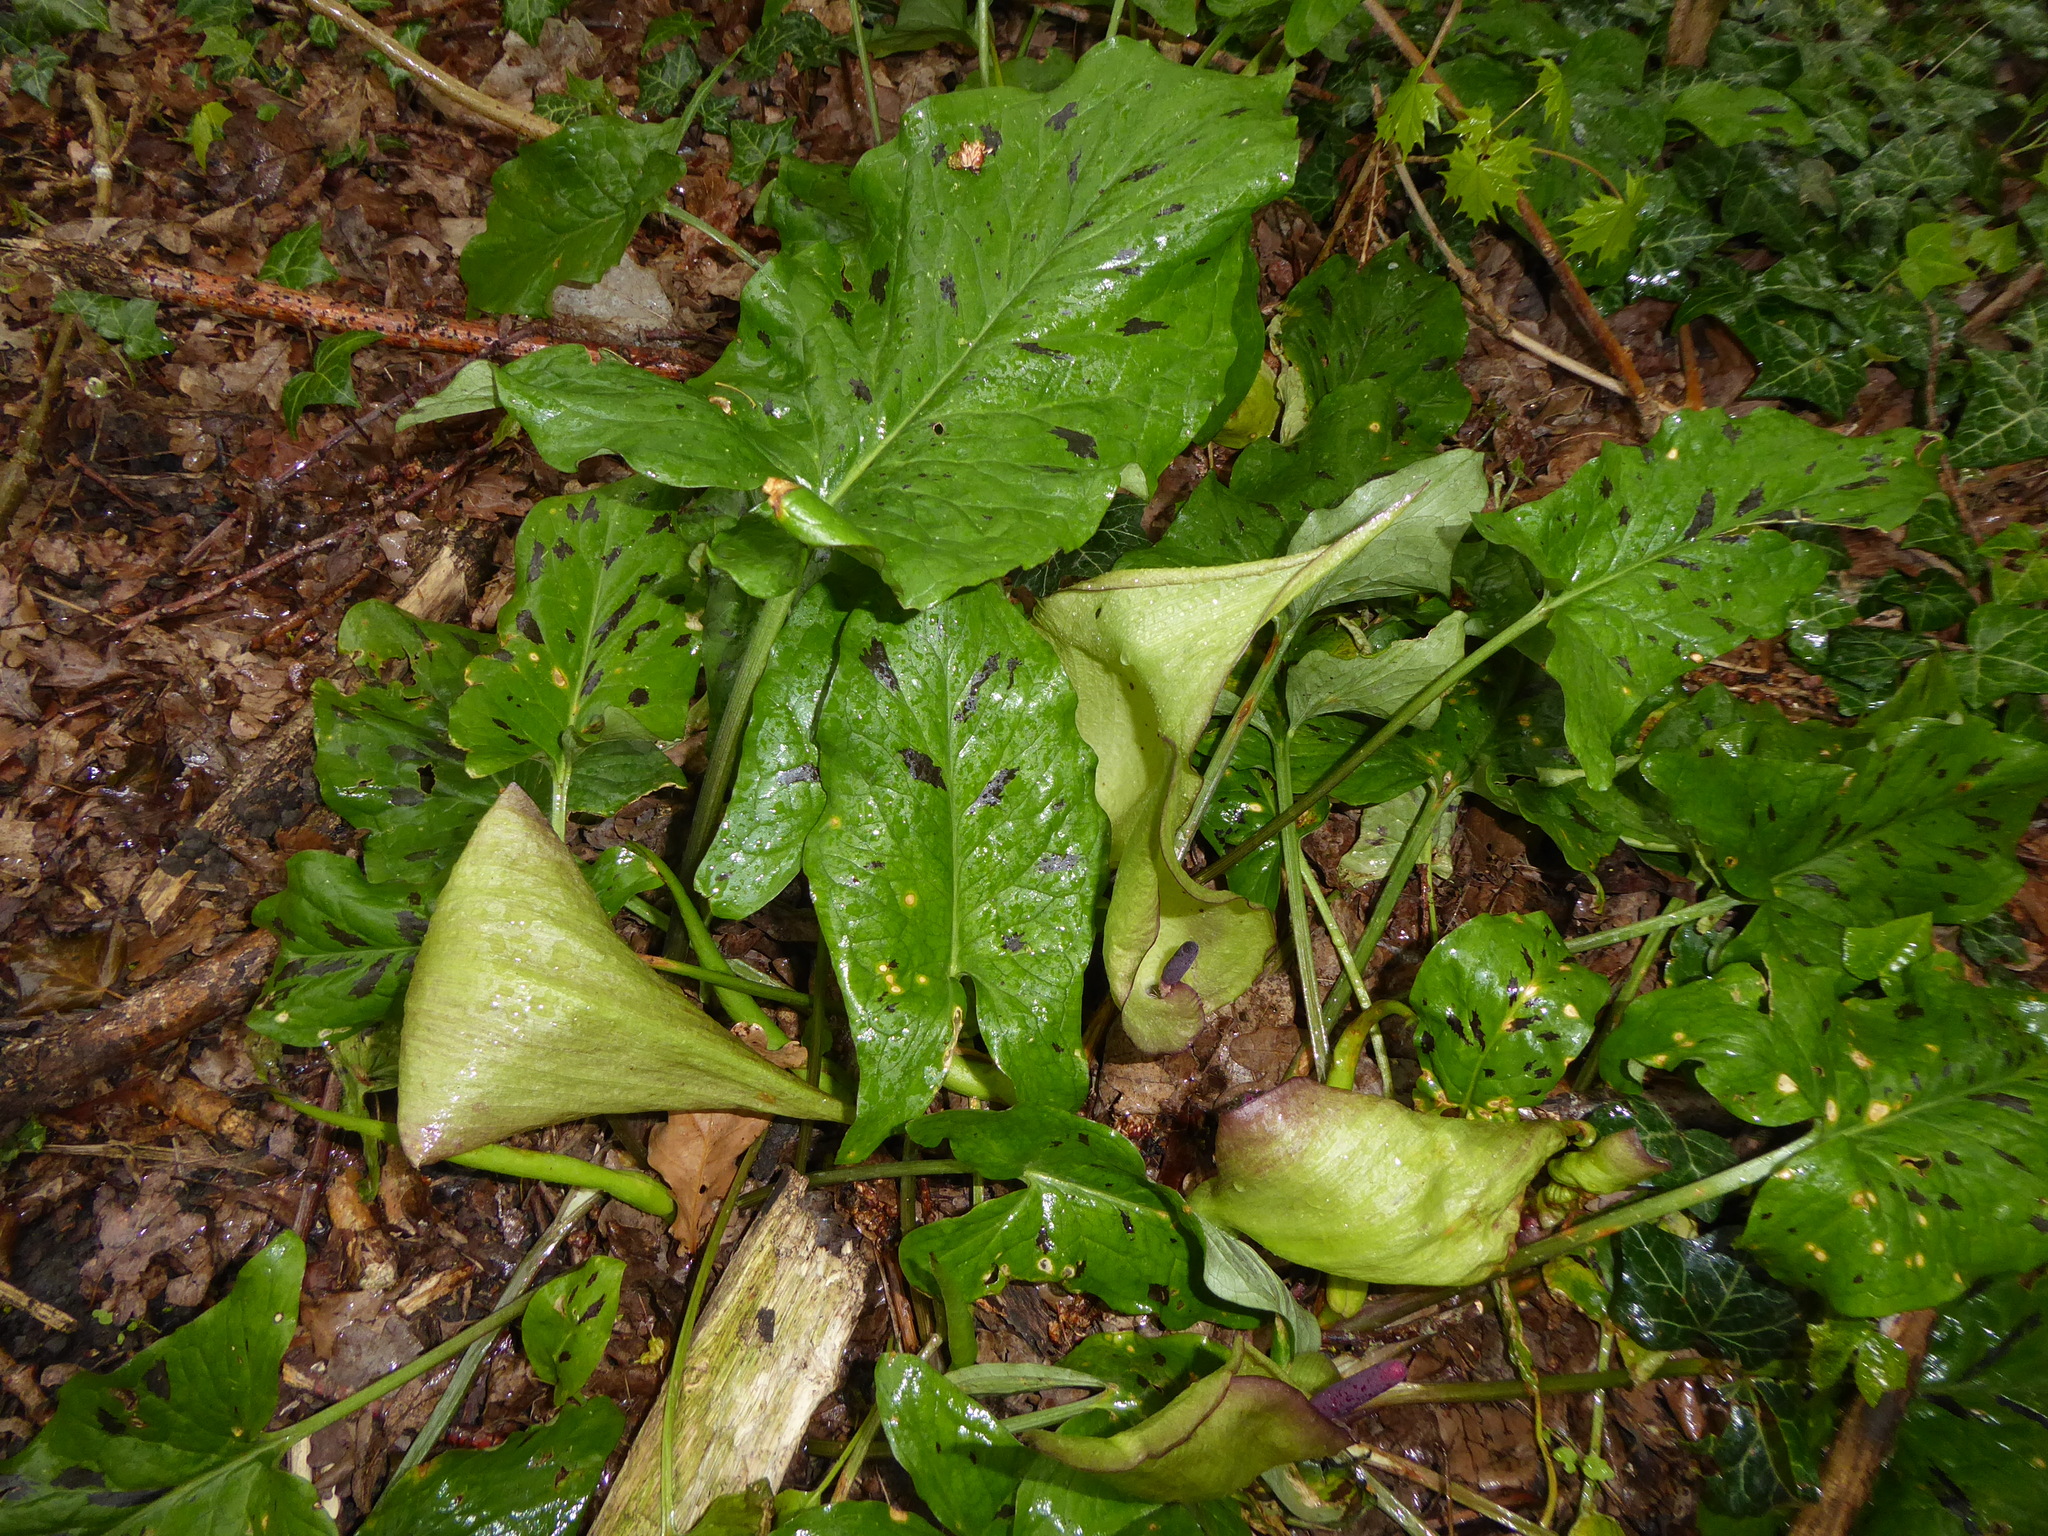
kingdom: Plantae
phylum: Tracheophyta
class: Liliopsida
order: Alismatales
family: Araceae
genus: Arum
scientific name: Arum maculatum
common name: Lords-and-ladies
